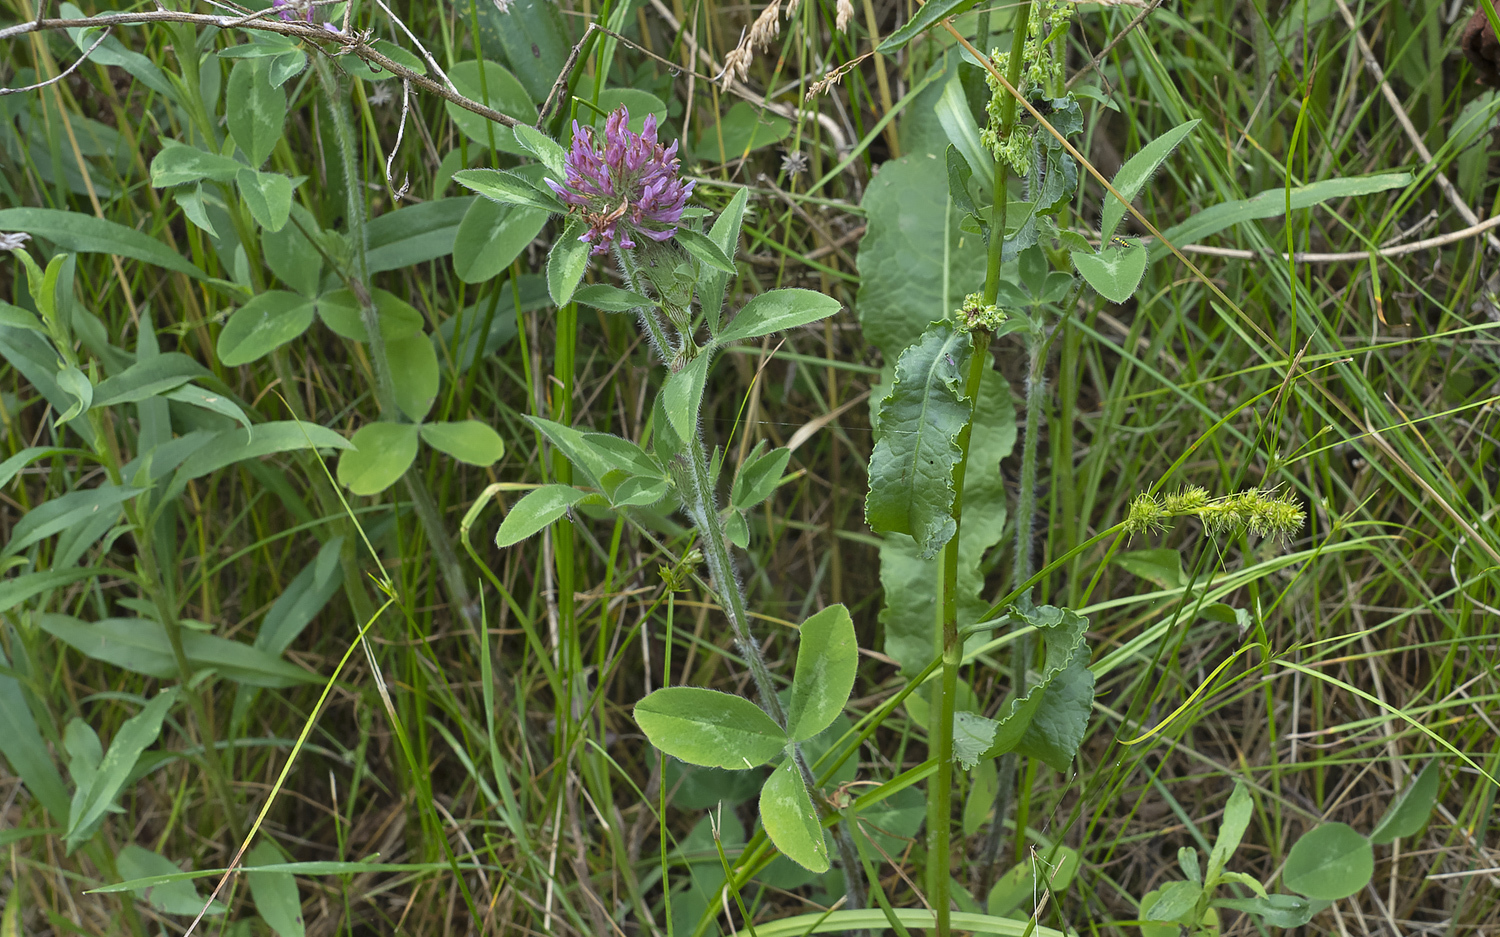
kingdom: Plantae
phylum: Tracheophyta
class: Magnoliopsida
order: Fabales
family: Fabaceae
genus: Trifolium
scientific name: Trifolium pratense
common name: Red clover
